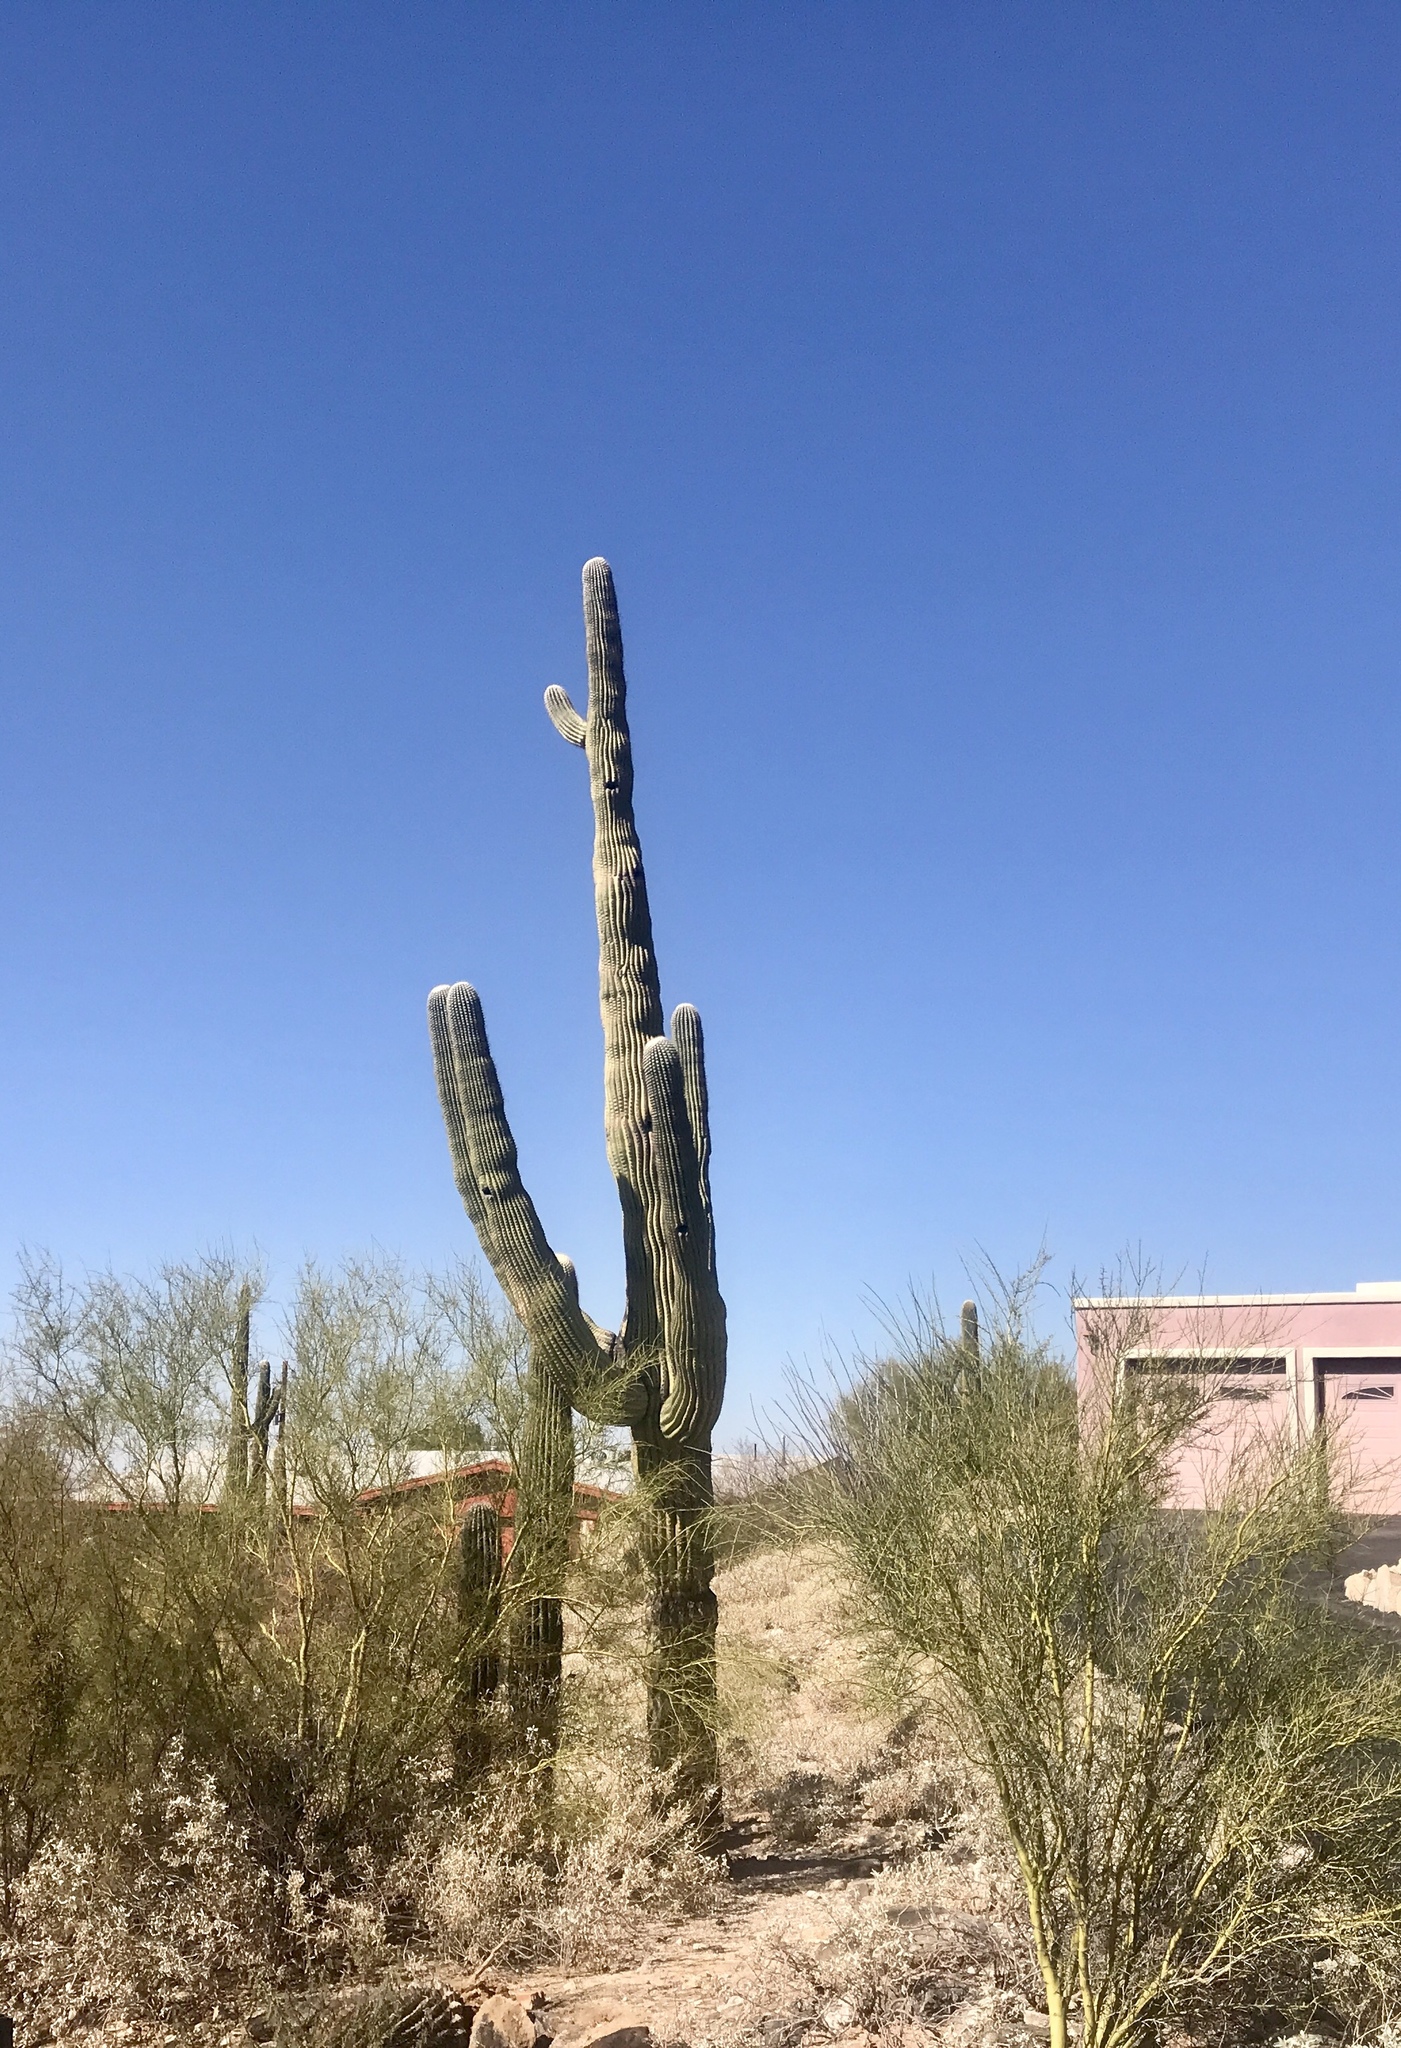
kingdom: Plantae
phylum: Tracheophyta
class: Magnoliopsida
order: Caryophyllales
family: Cactaceae
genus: Carnegiea
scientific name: Carnegiea gigantea
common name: Saguaro
